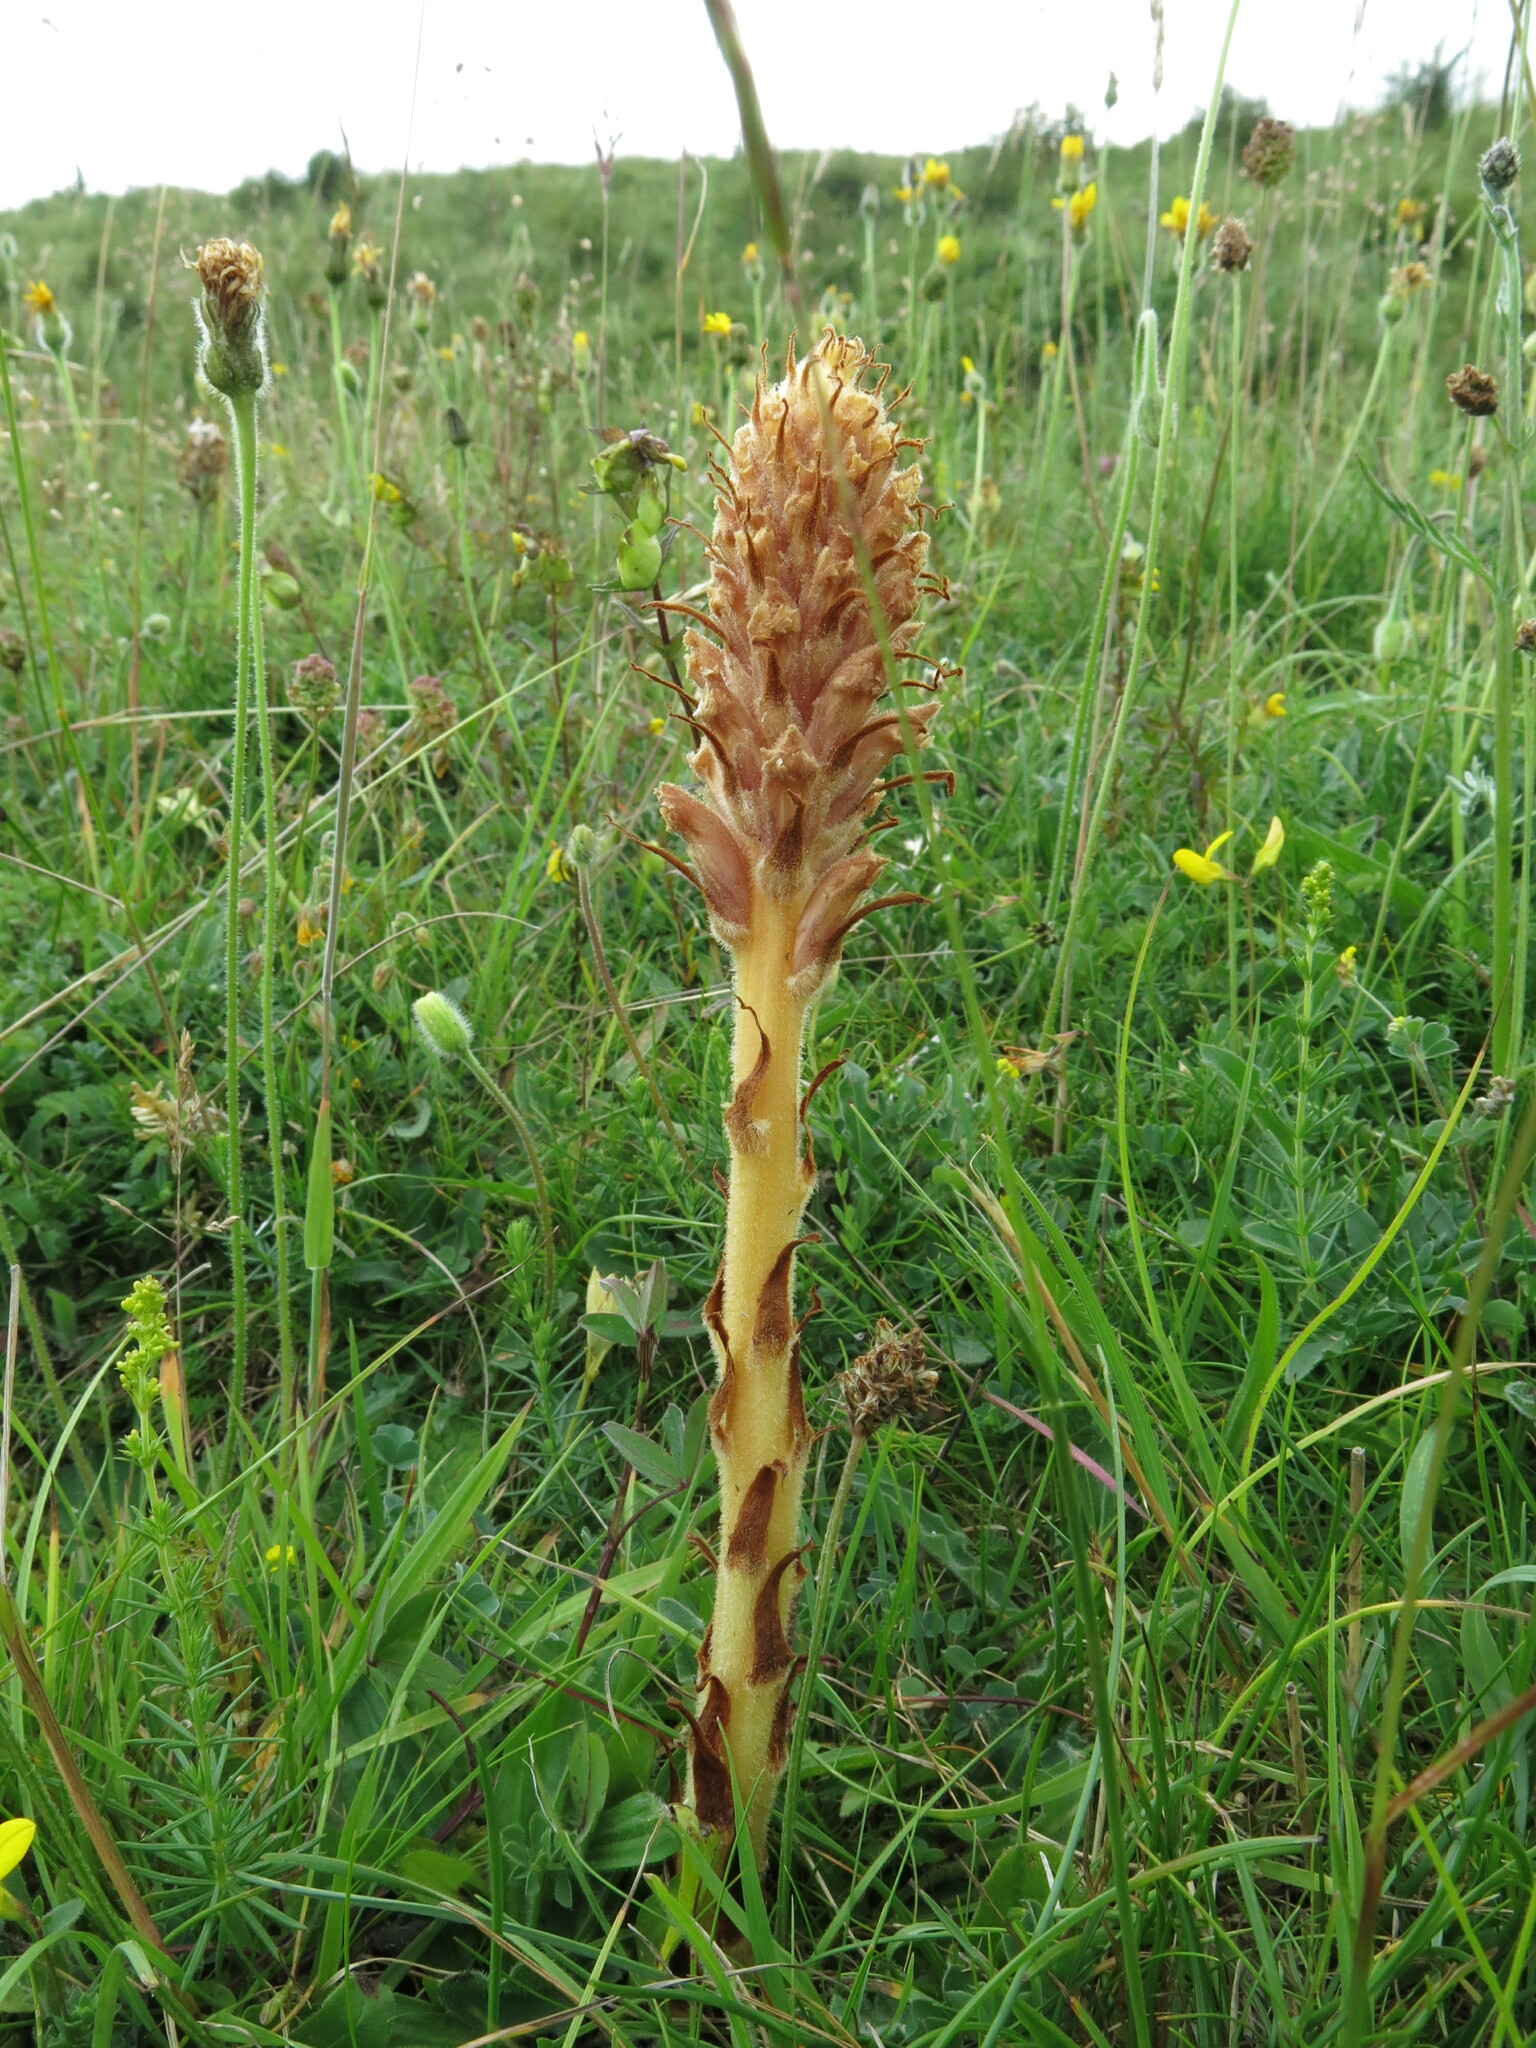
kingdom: Plantae
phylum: Tracheophyta
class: Magnoliopsida
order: Lamiales
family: Orobanchaceae
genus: Orobanche
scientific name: Orobanche elatior
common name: Knapweed broomrape
